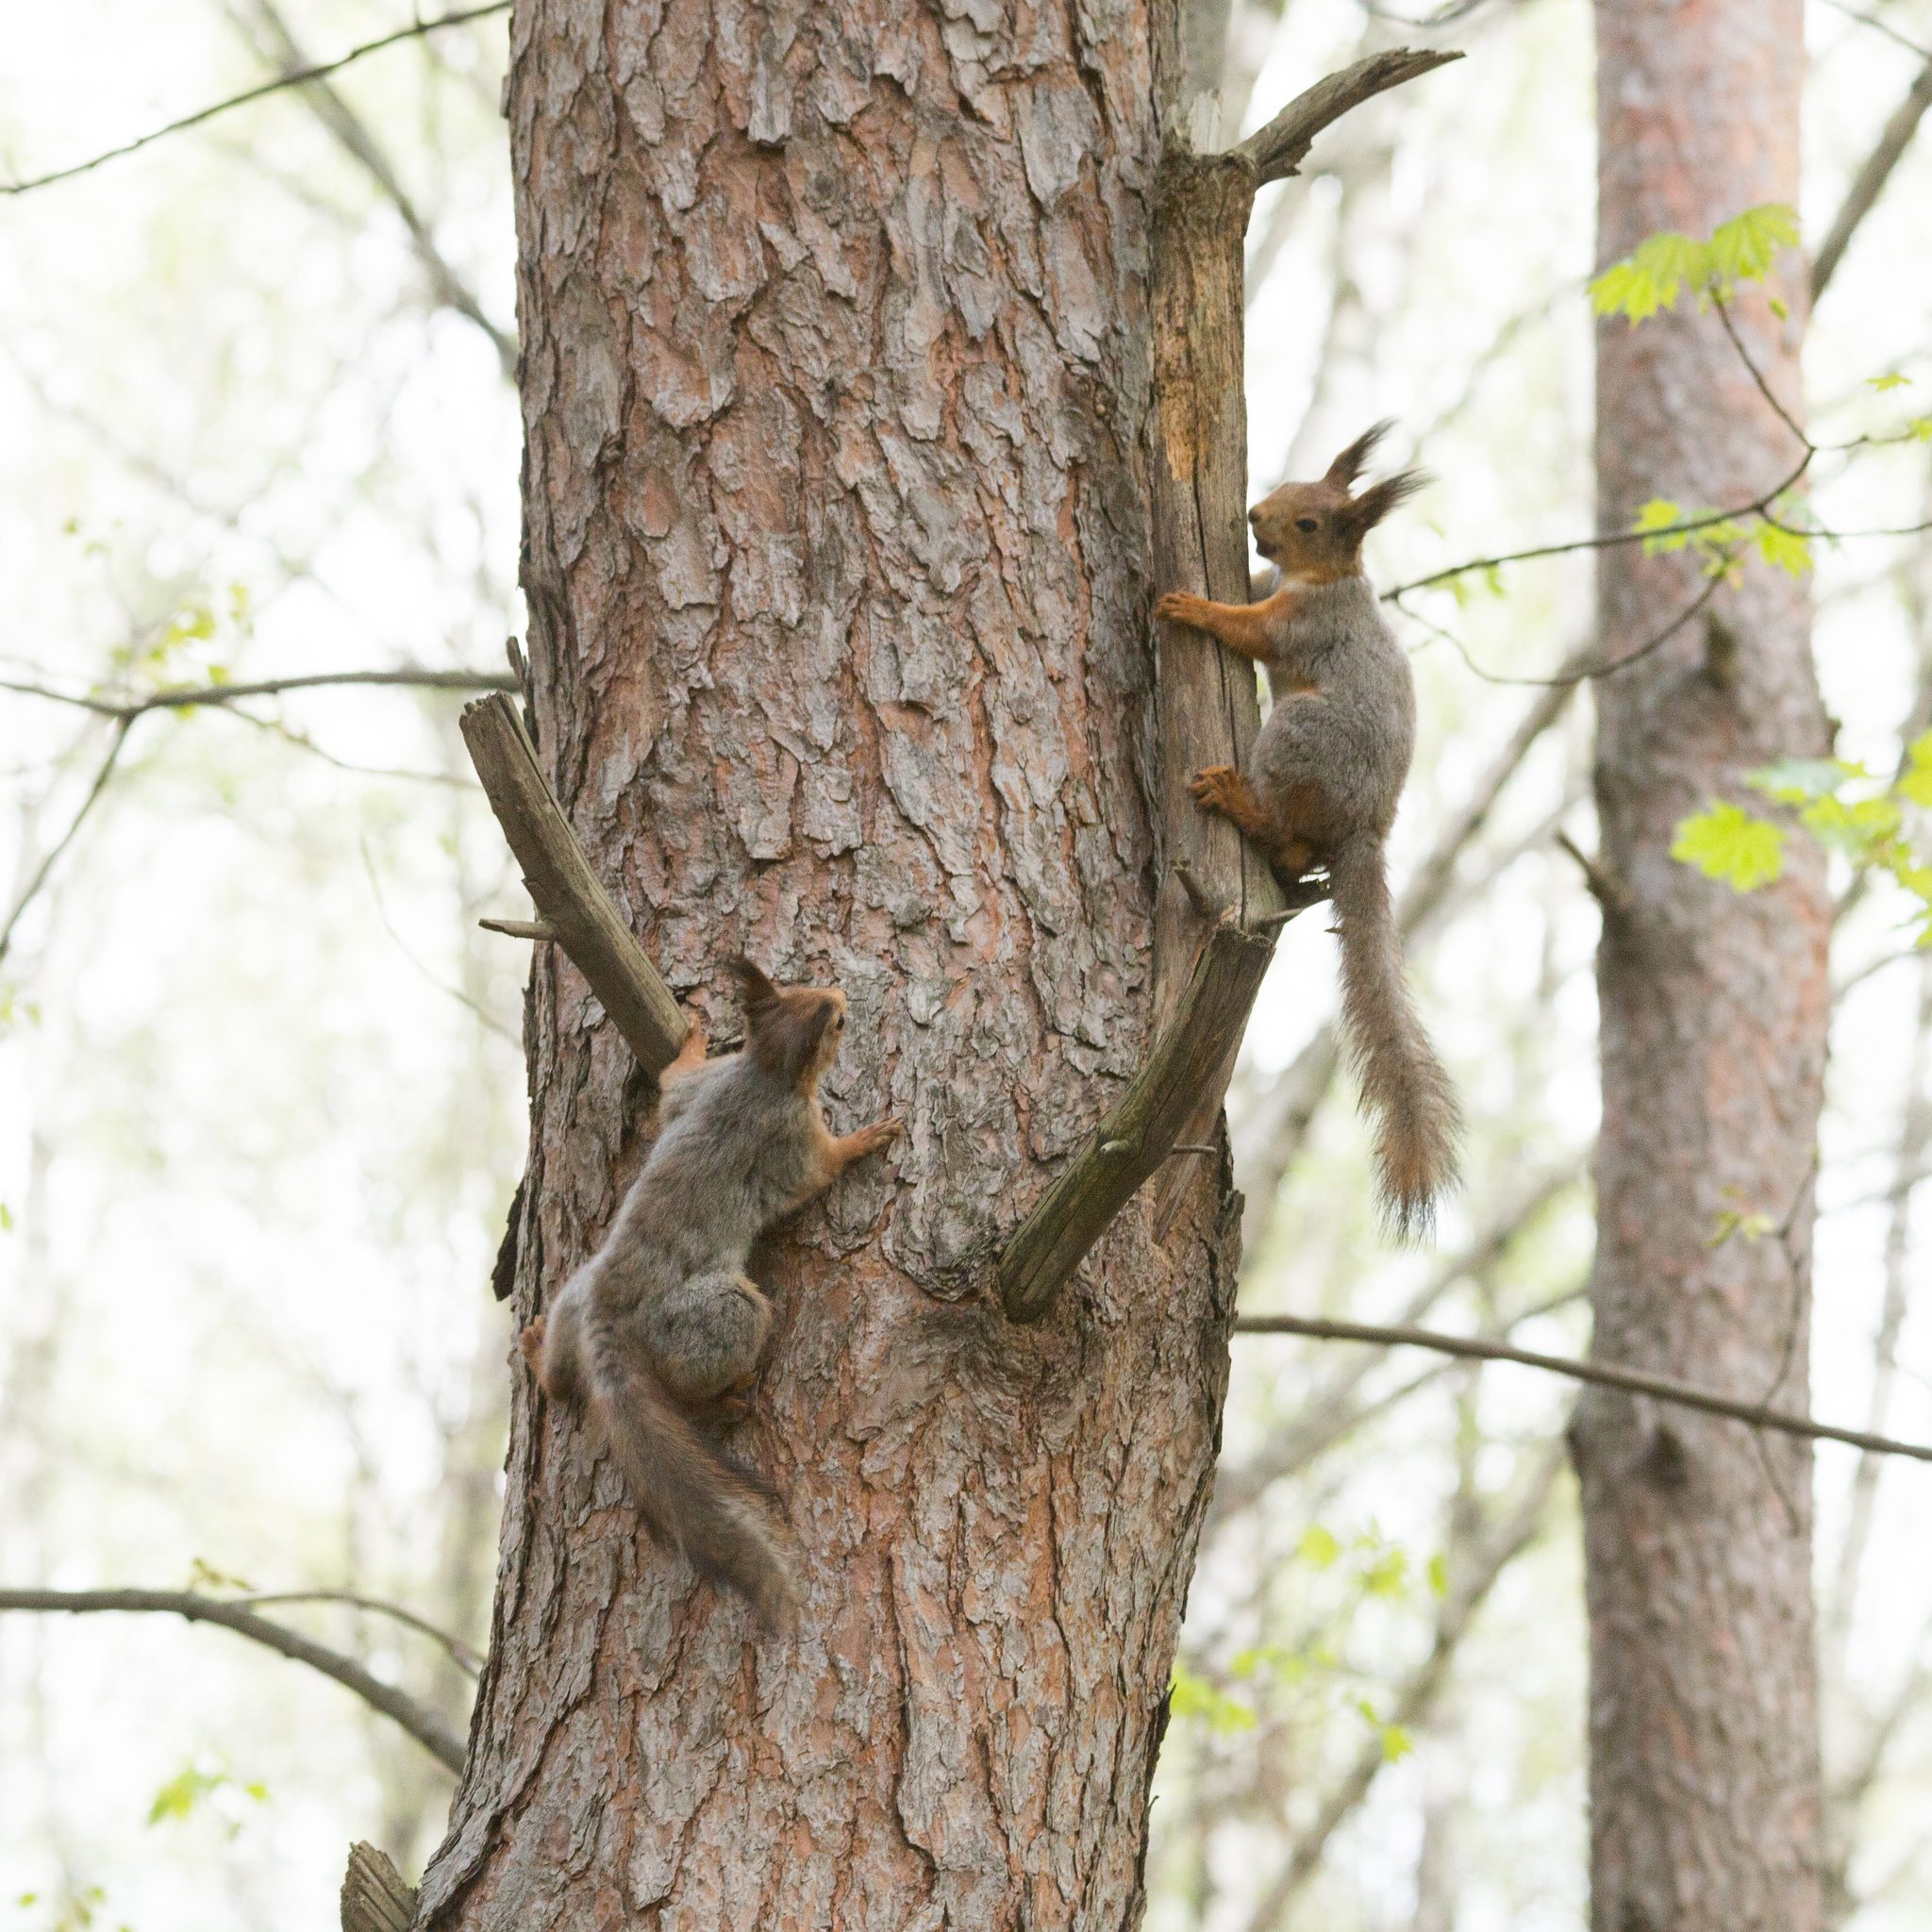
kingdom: Animalia
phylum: Chordata
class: Mammalia
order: Rodentia
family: Sciuridae
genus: Sciurus
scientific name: Sciurus vulgaris
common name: Eurasian red squirrel
